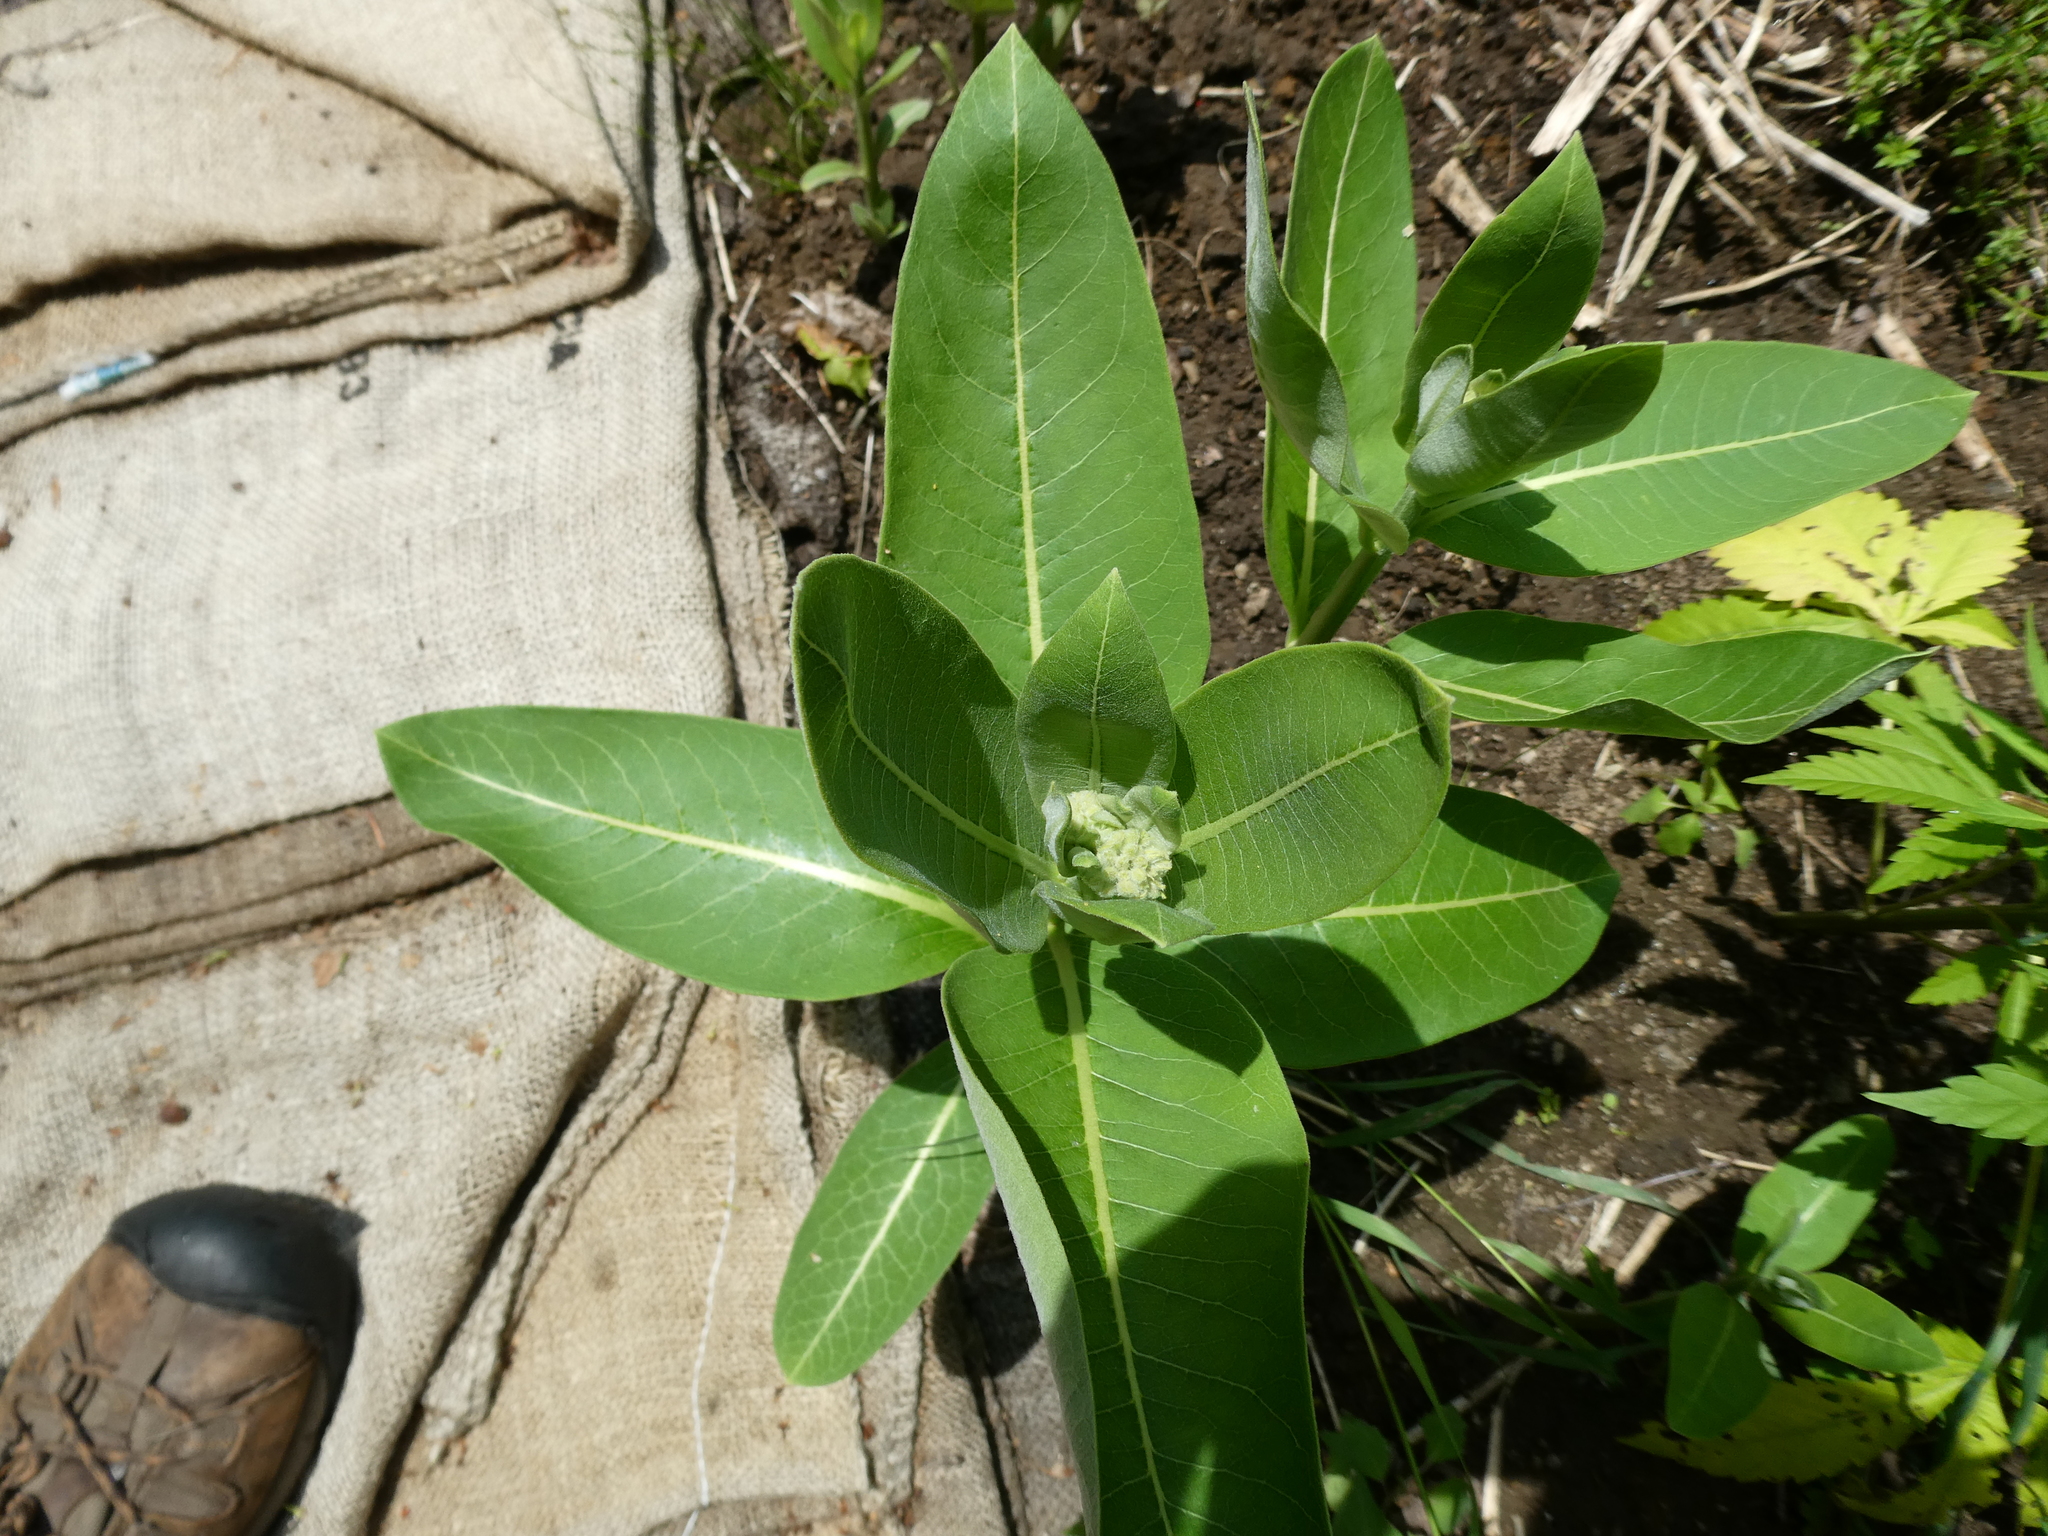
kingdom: Plantae
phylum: Tracheophyta
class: Magnoliopsida
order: Gentianales
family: Apocynaceae
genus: Asclepias
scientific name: Asclepias syriaca
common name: Common milkweed
